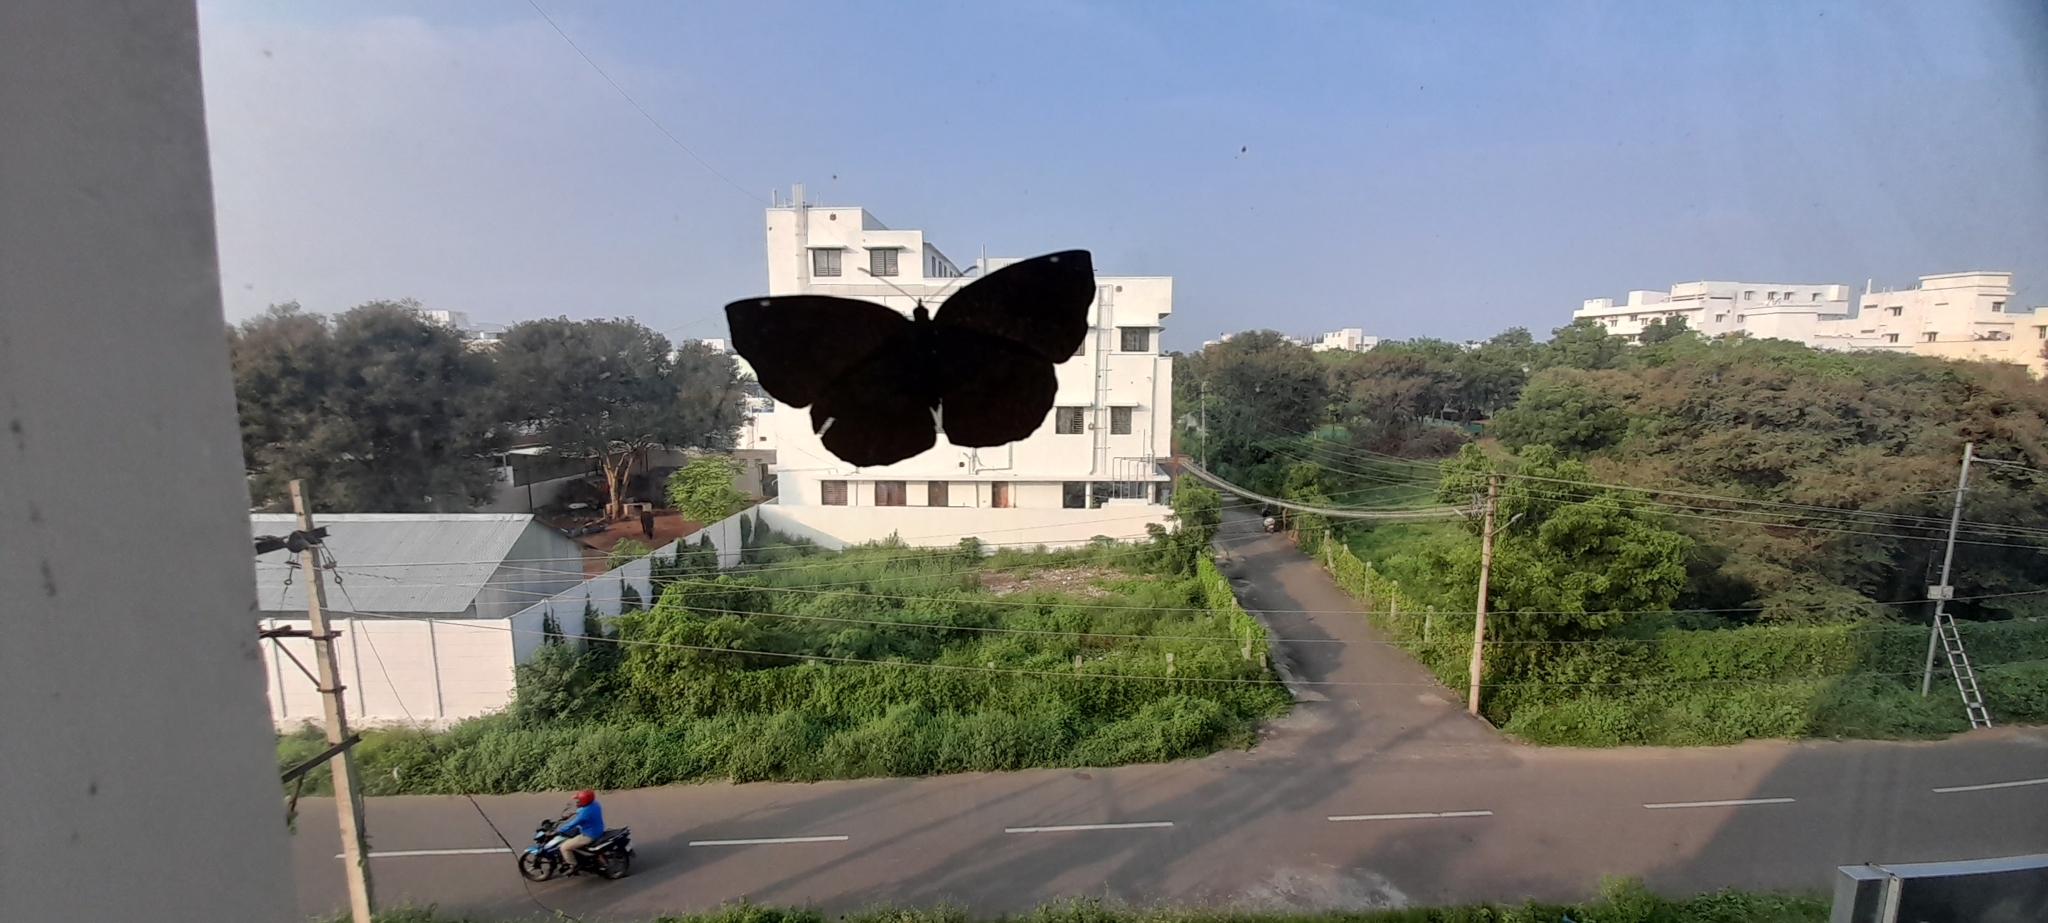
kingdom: Animalia
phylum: Arthropoda
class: Insecta
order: Lepidoptera
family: Nymphalidae
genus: Ariadne
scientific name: Ariadne merione
